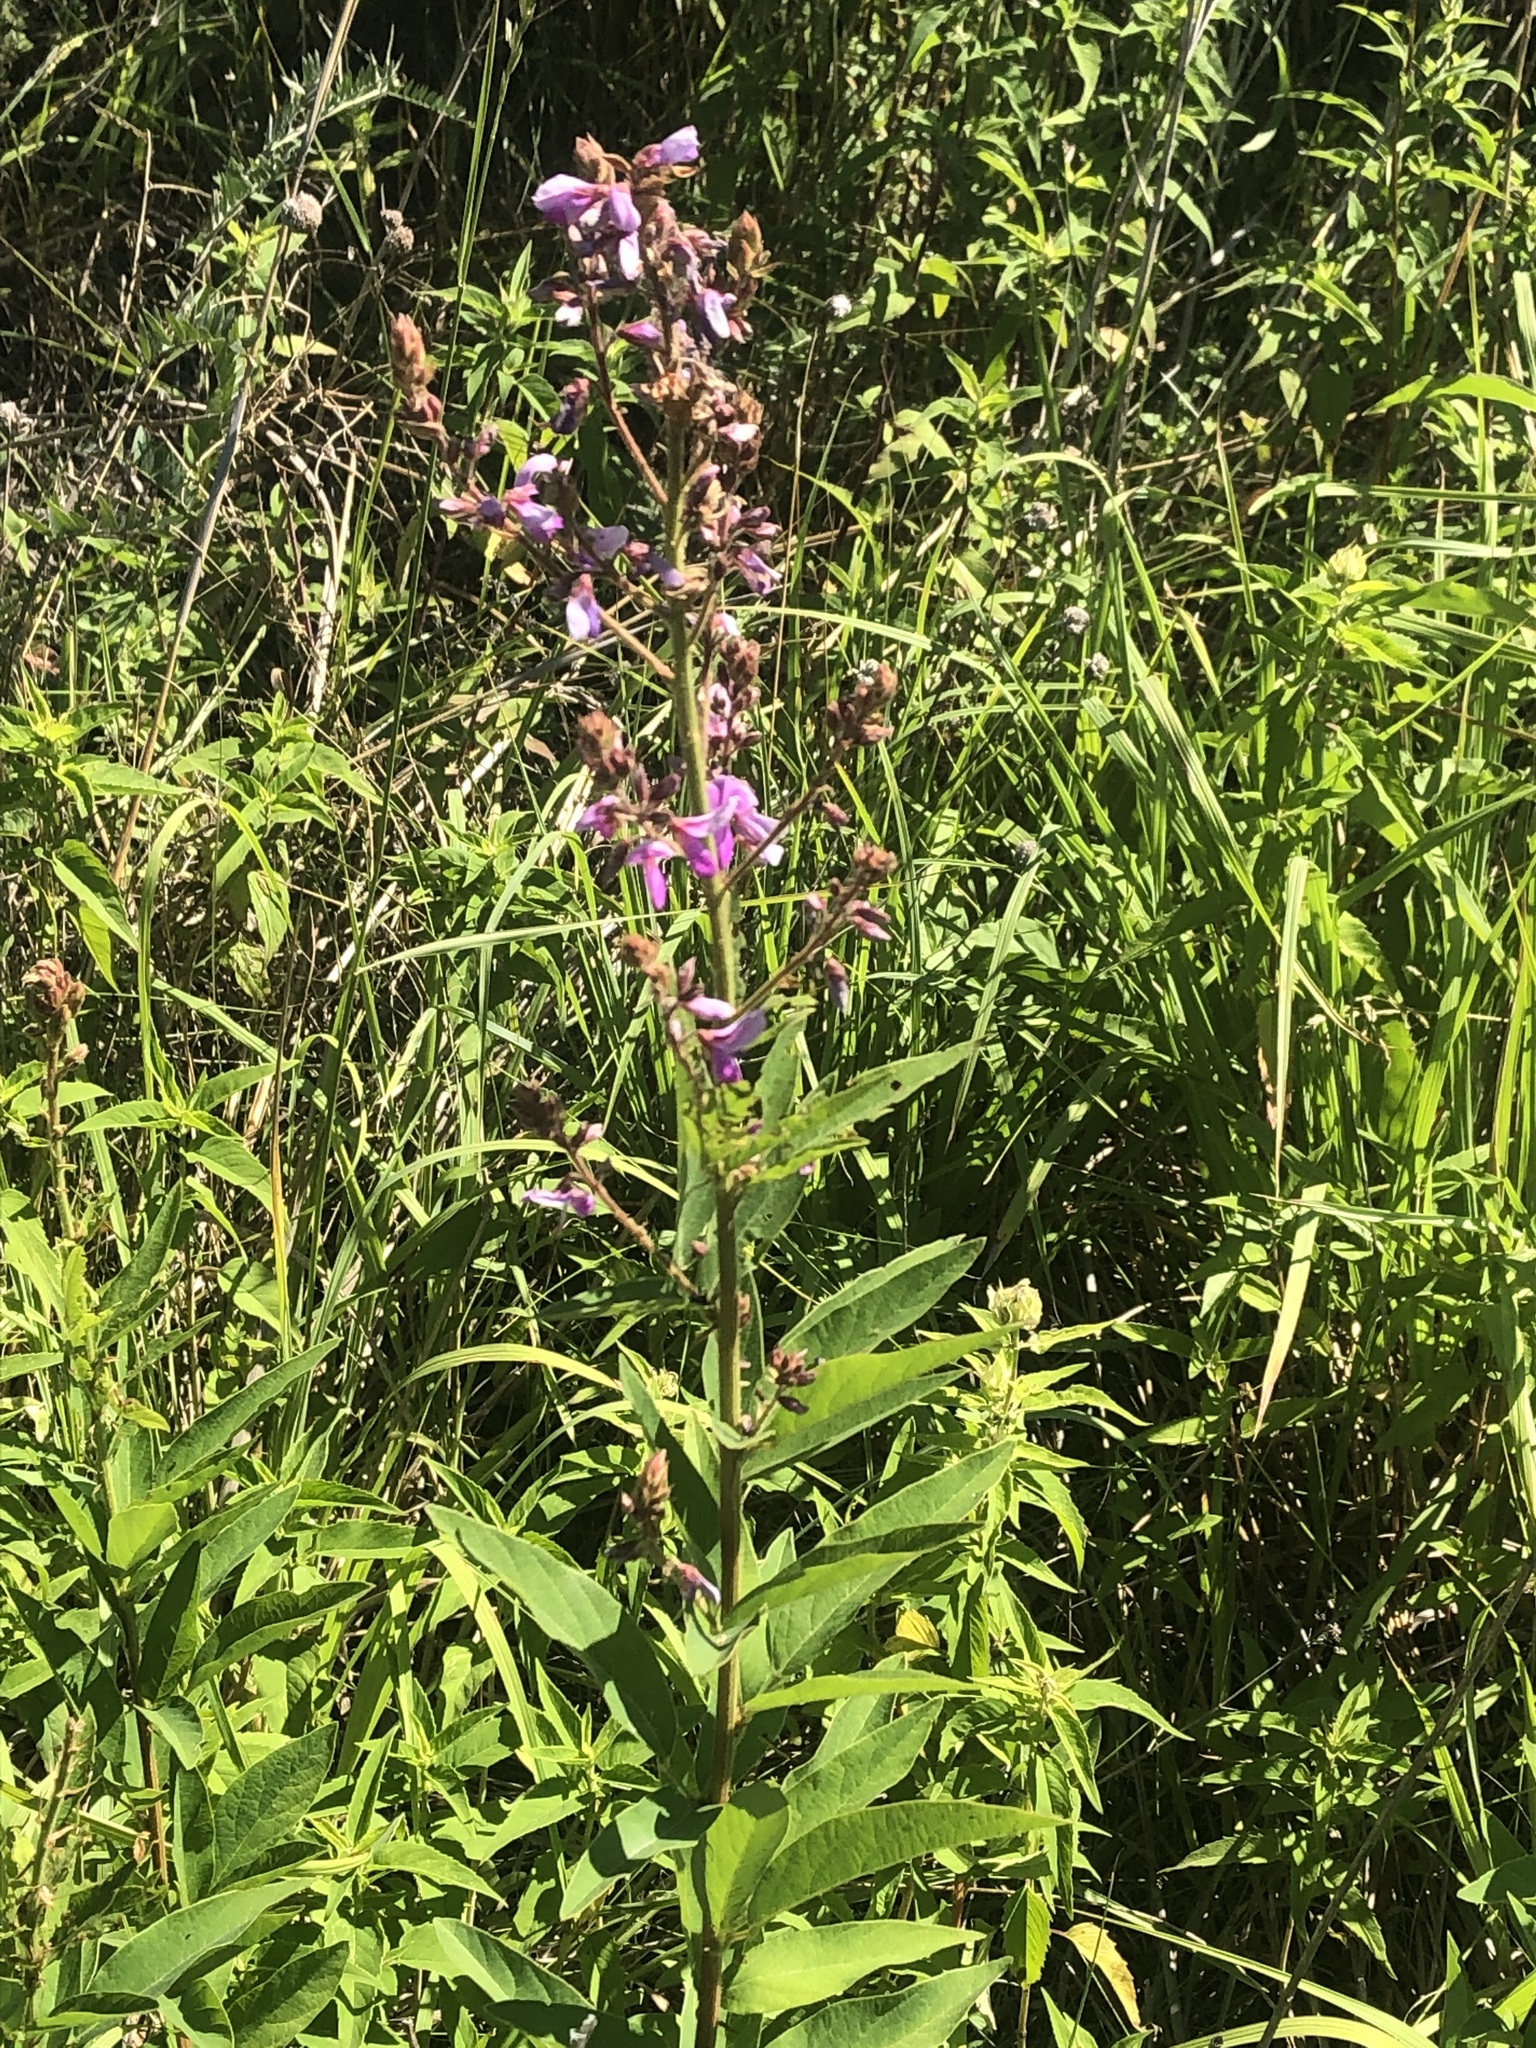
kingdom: Plantae
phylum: Tracheophyta
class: Magnoliopsida
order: Fabales
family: Fabaceae
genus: Desmodium
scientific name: Desmodium canadense
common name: Canada tick-trefoil
